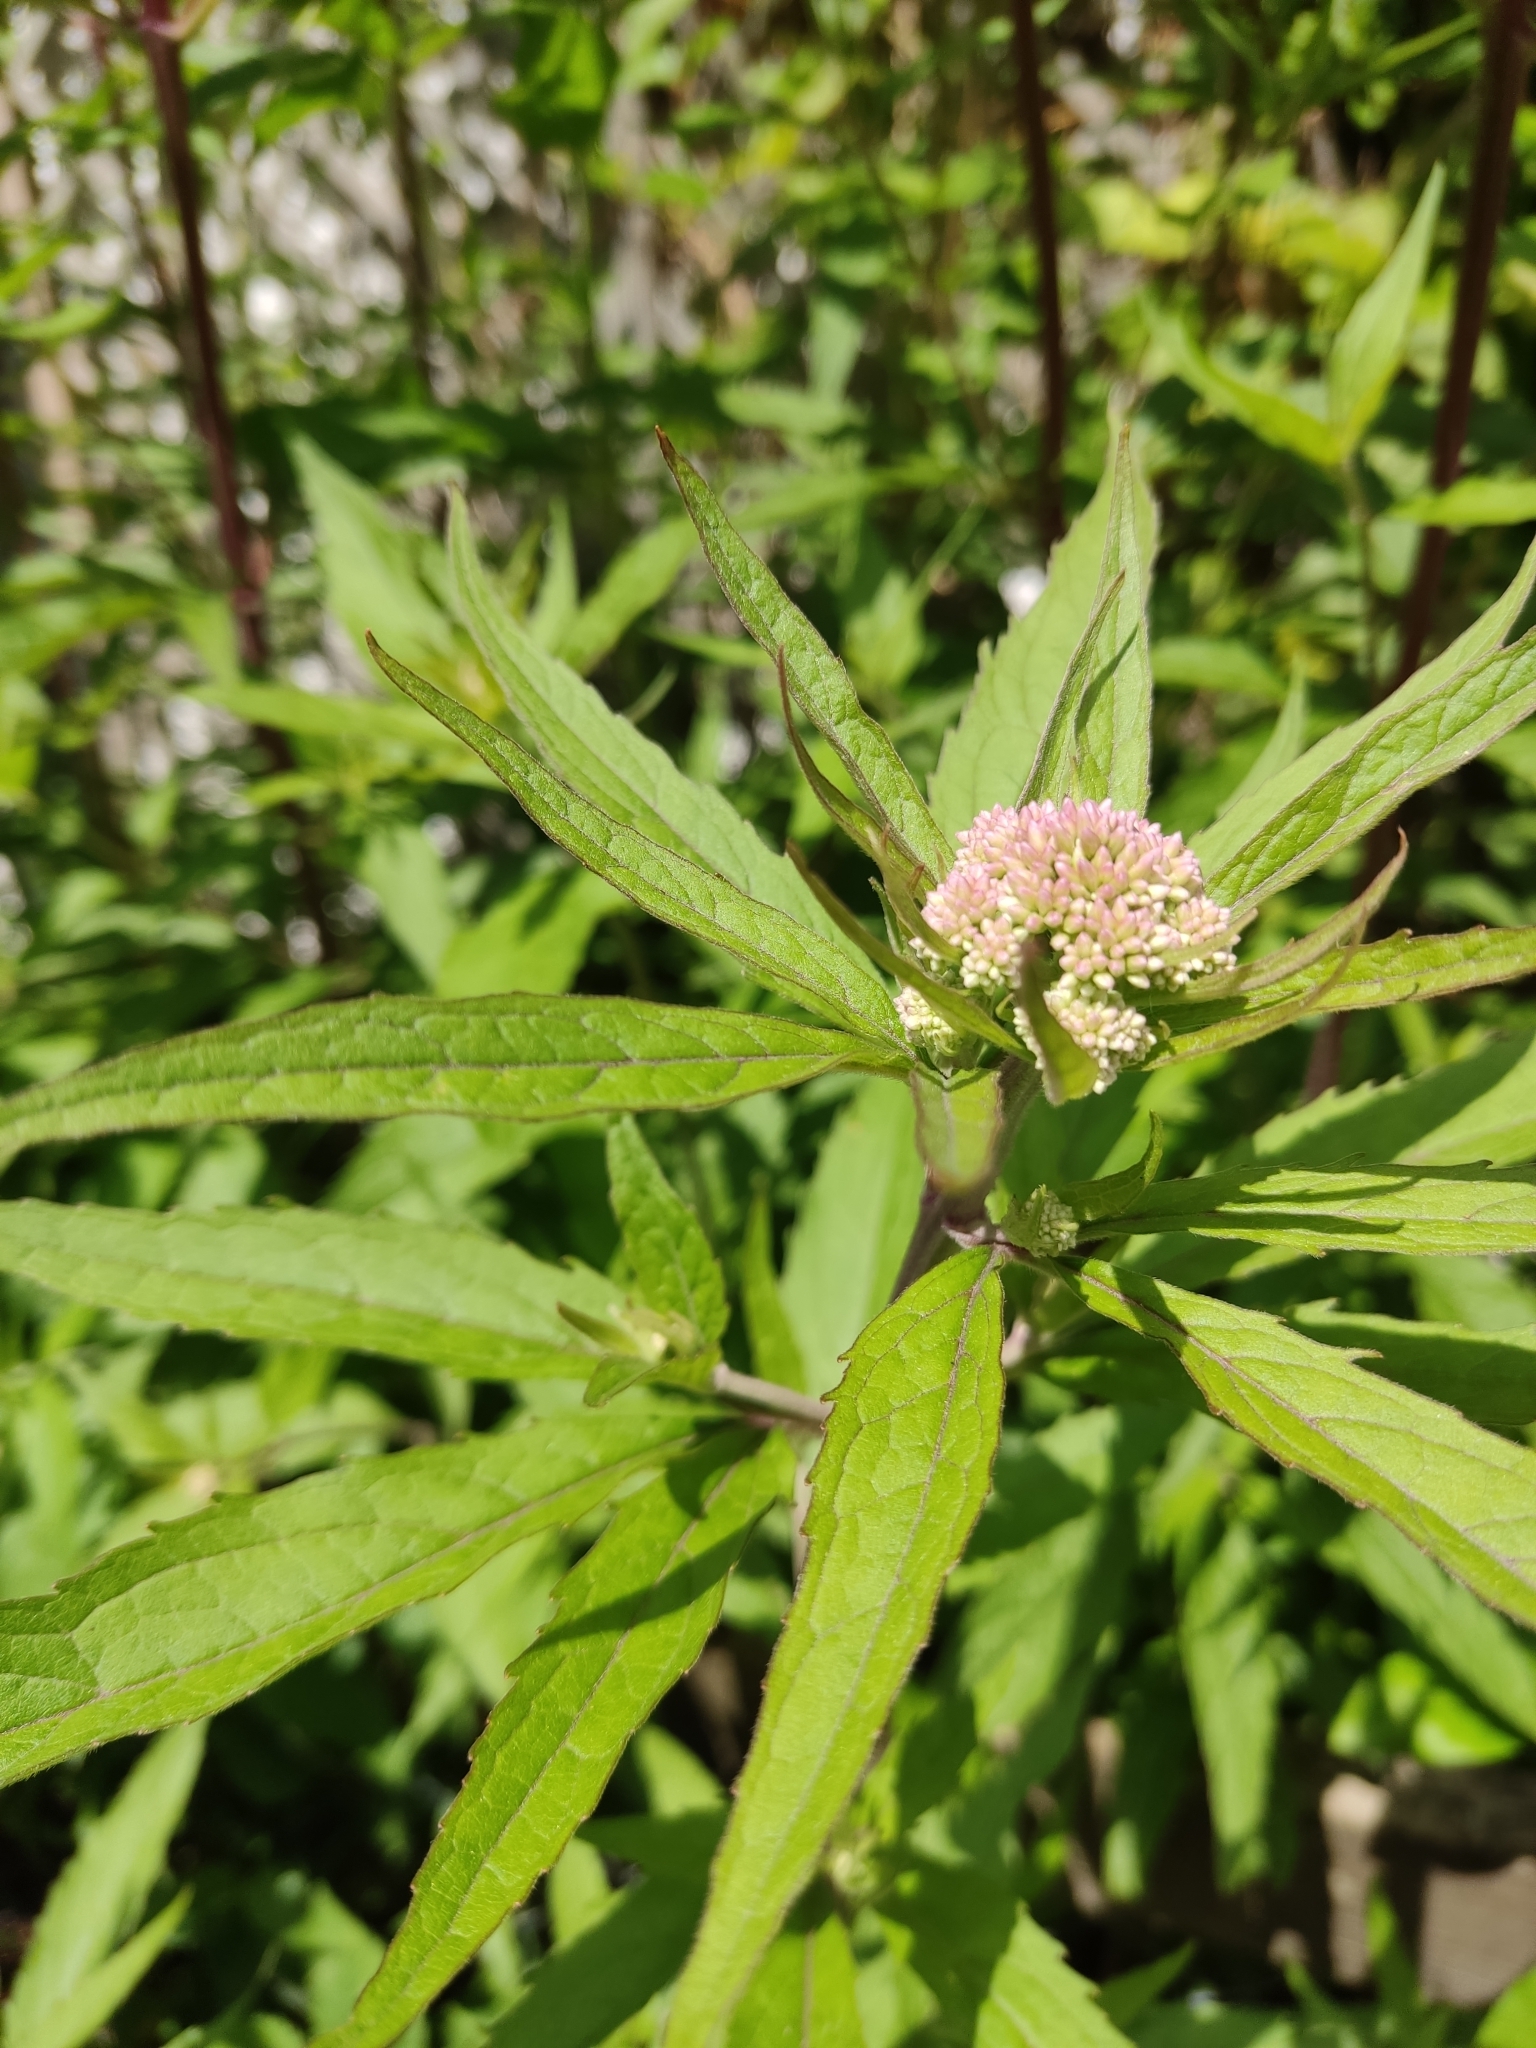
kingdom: Plantae
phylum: Tracheophyta
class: Magnoliopsida
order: Asterales
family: Asteraceae
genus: Eupatorium
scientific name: Eupatorium cannabinum
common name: Hemp-agrimony
